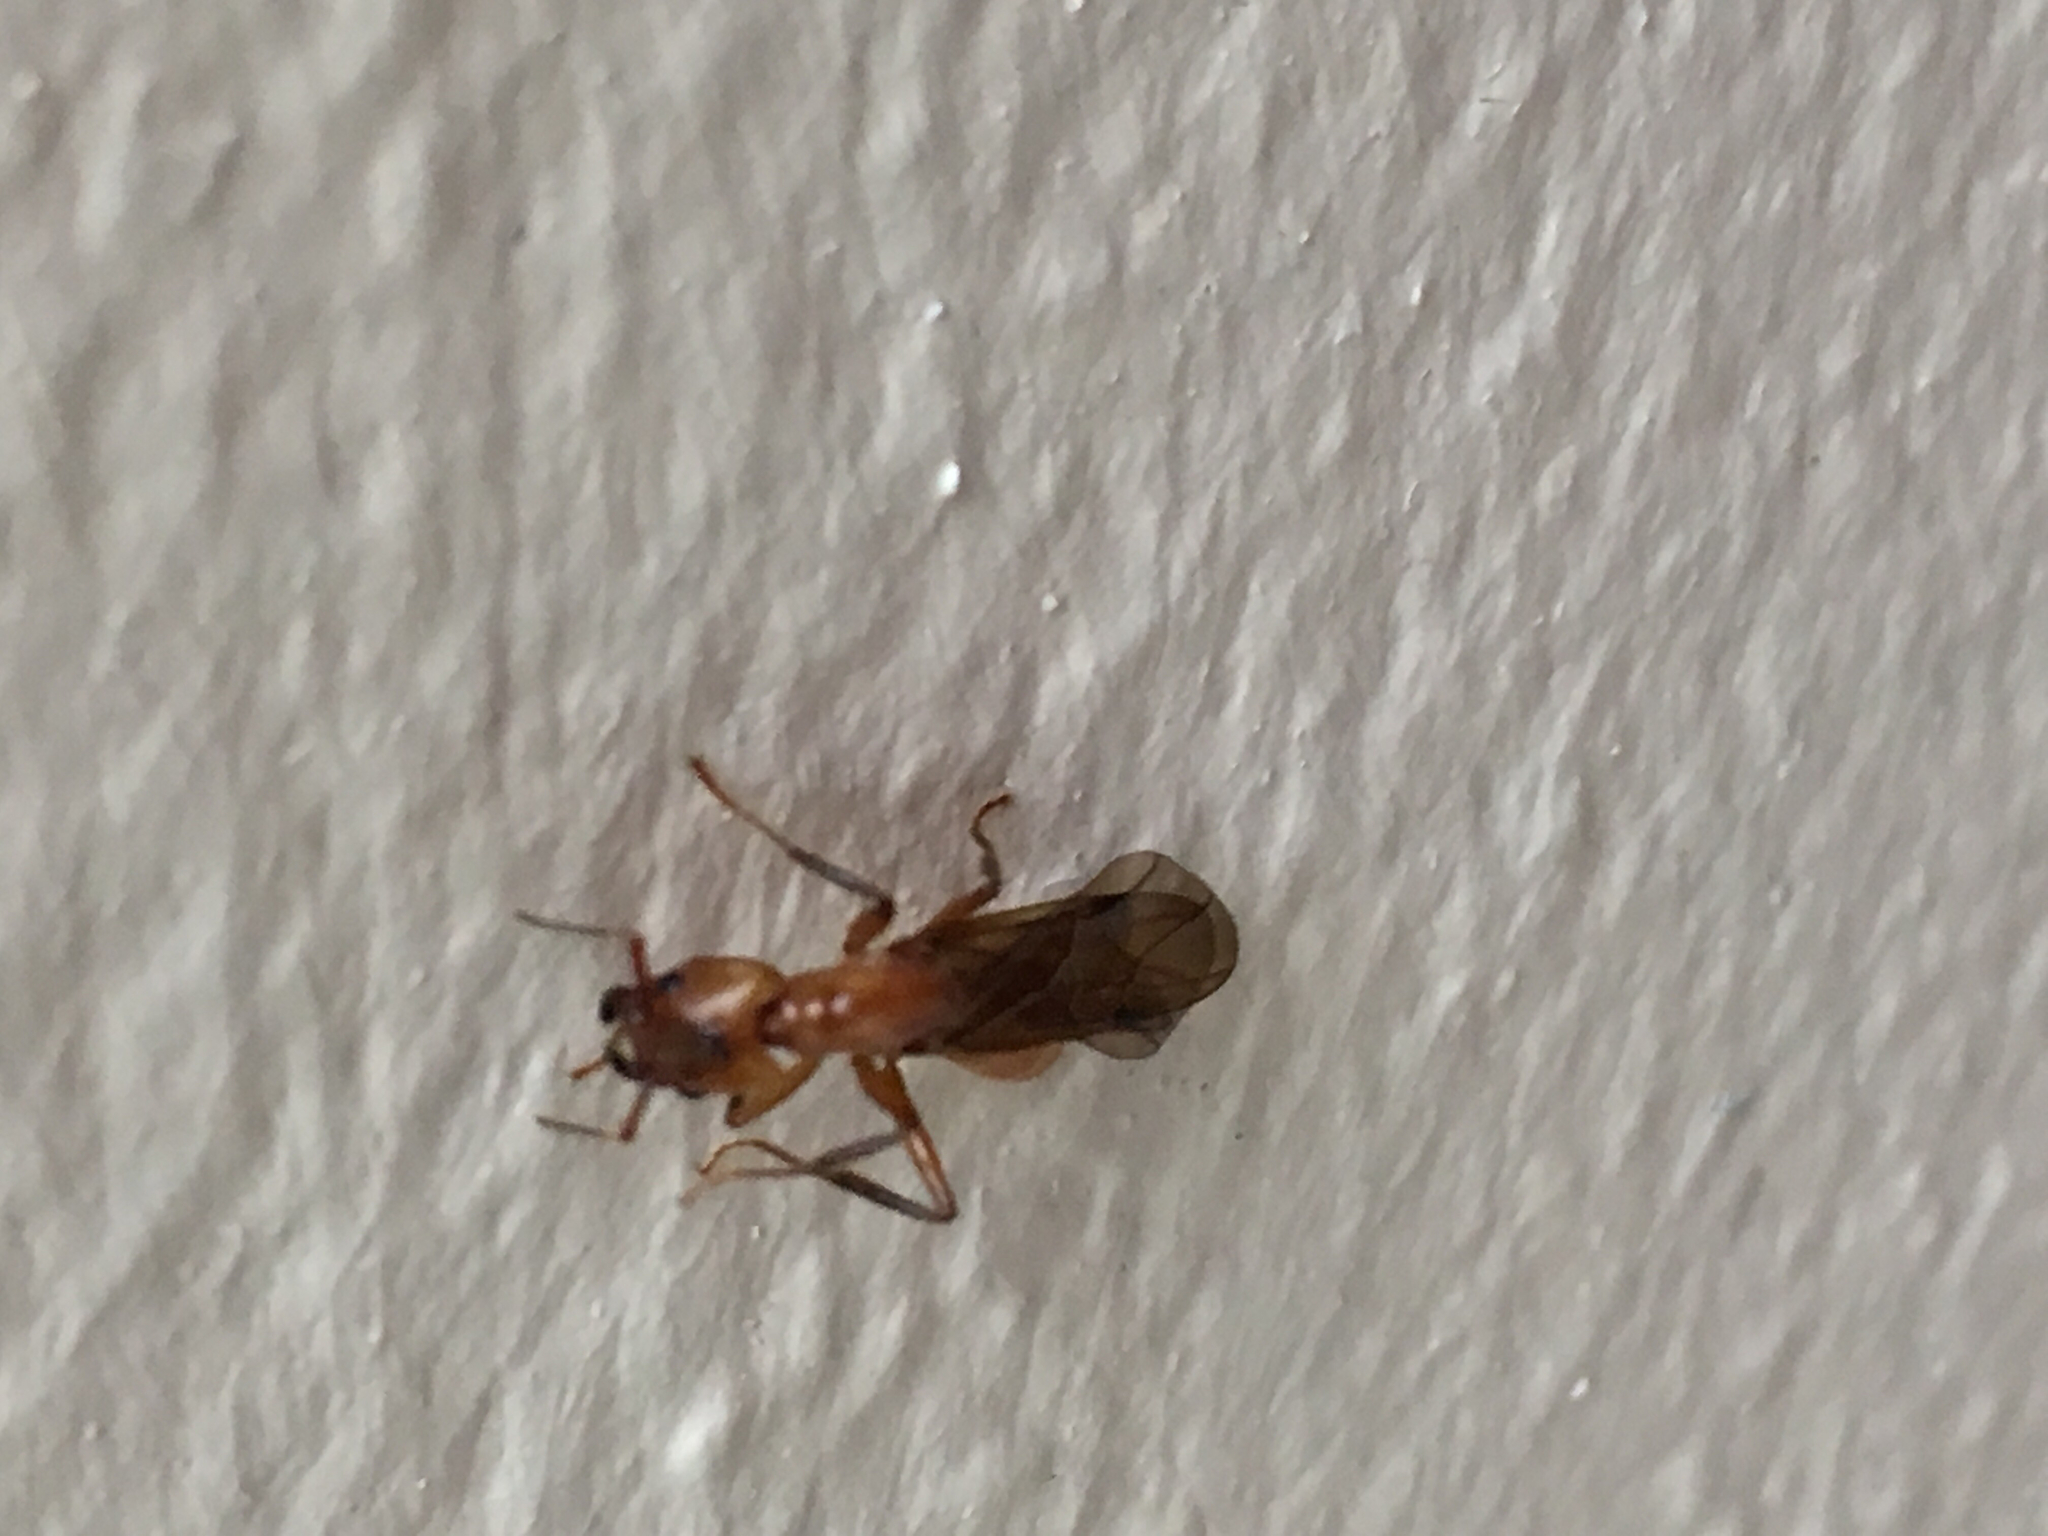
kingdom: Animalia
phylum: Arthropoda
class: Insecta
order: Hymenoptera
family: Formicidae
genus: Azteca
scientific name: Azteca xanthochroa
